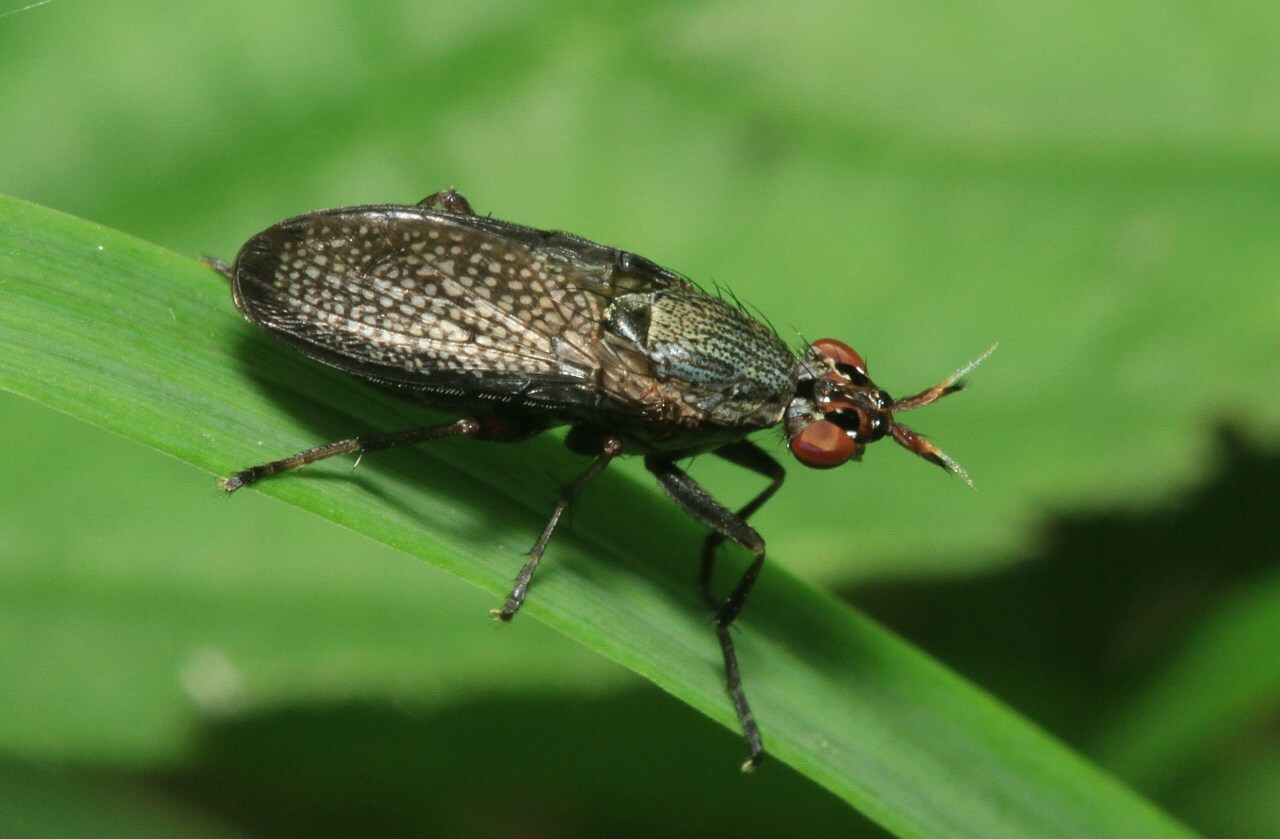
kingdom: Animalia
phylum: Arthropoda
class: Insecta
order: Diptera
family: Sciomyzidae
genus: Coremacera
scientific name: Coremacera marginata
